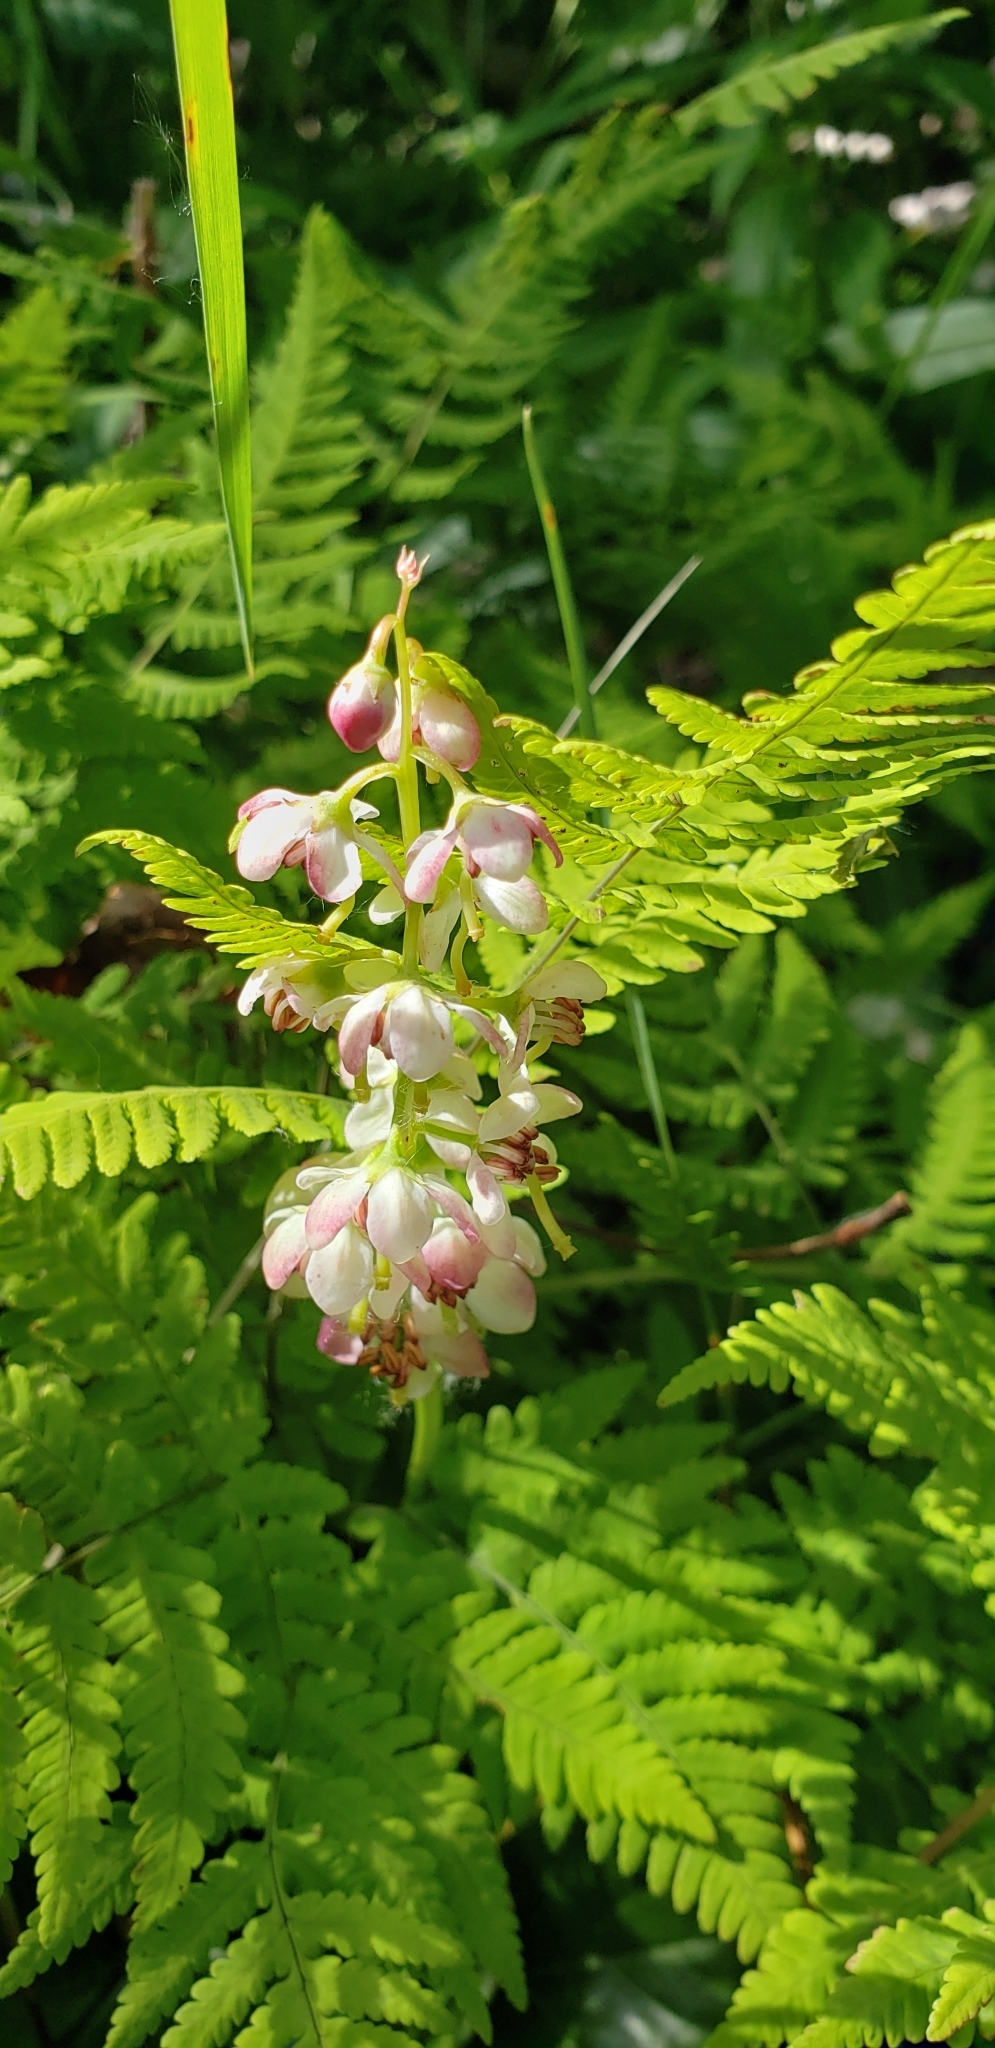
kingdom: Plantae
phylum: Tracheophyta
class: Magnoliopsida
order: Ericales
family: Ericaceae
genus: Pyrola
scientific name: Pyrola asarifolia
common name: Bog wintergreen
